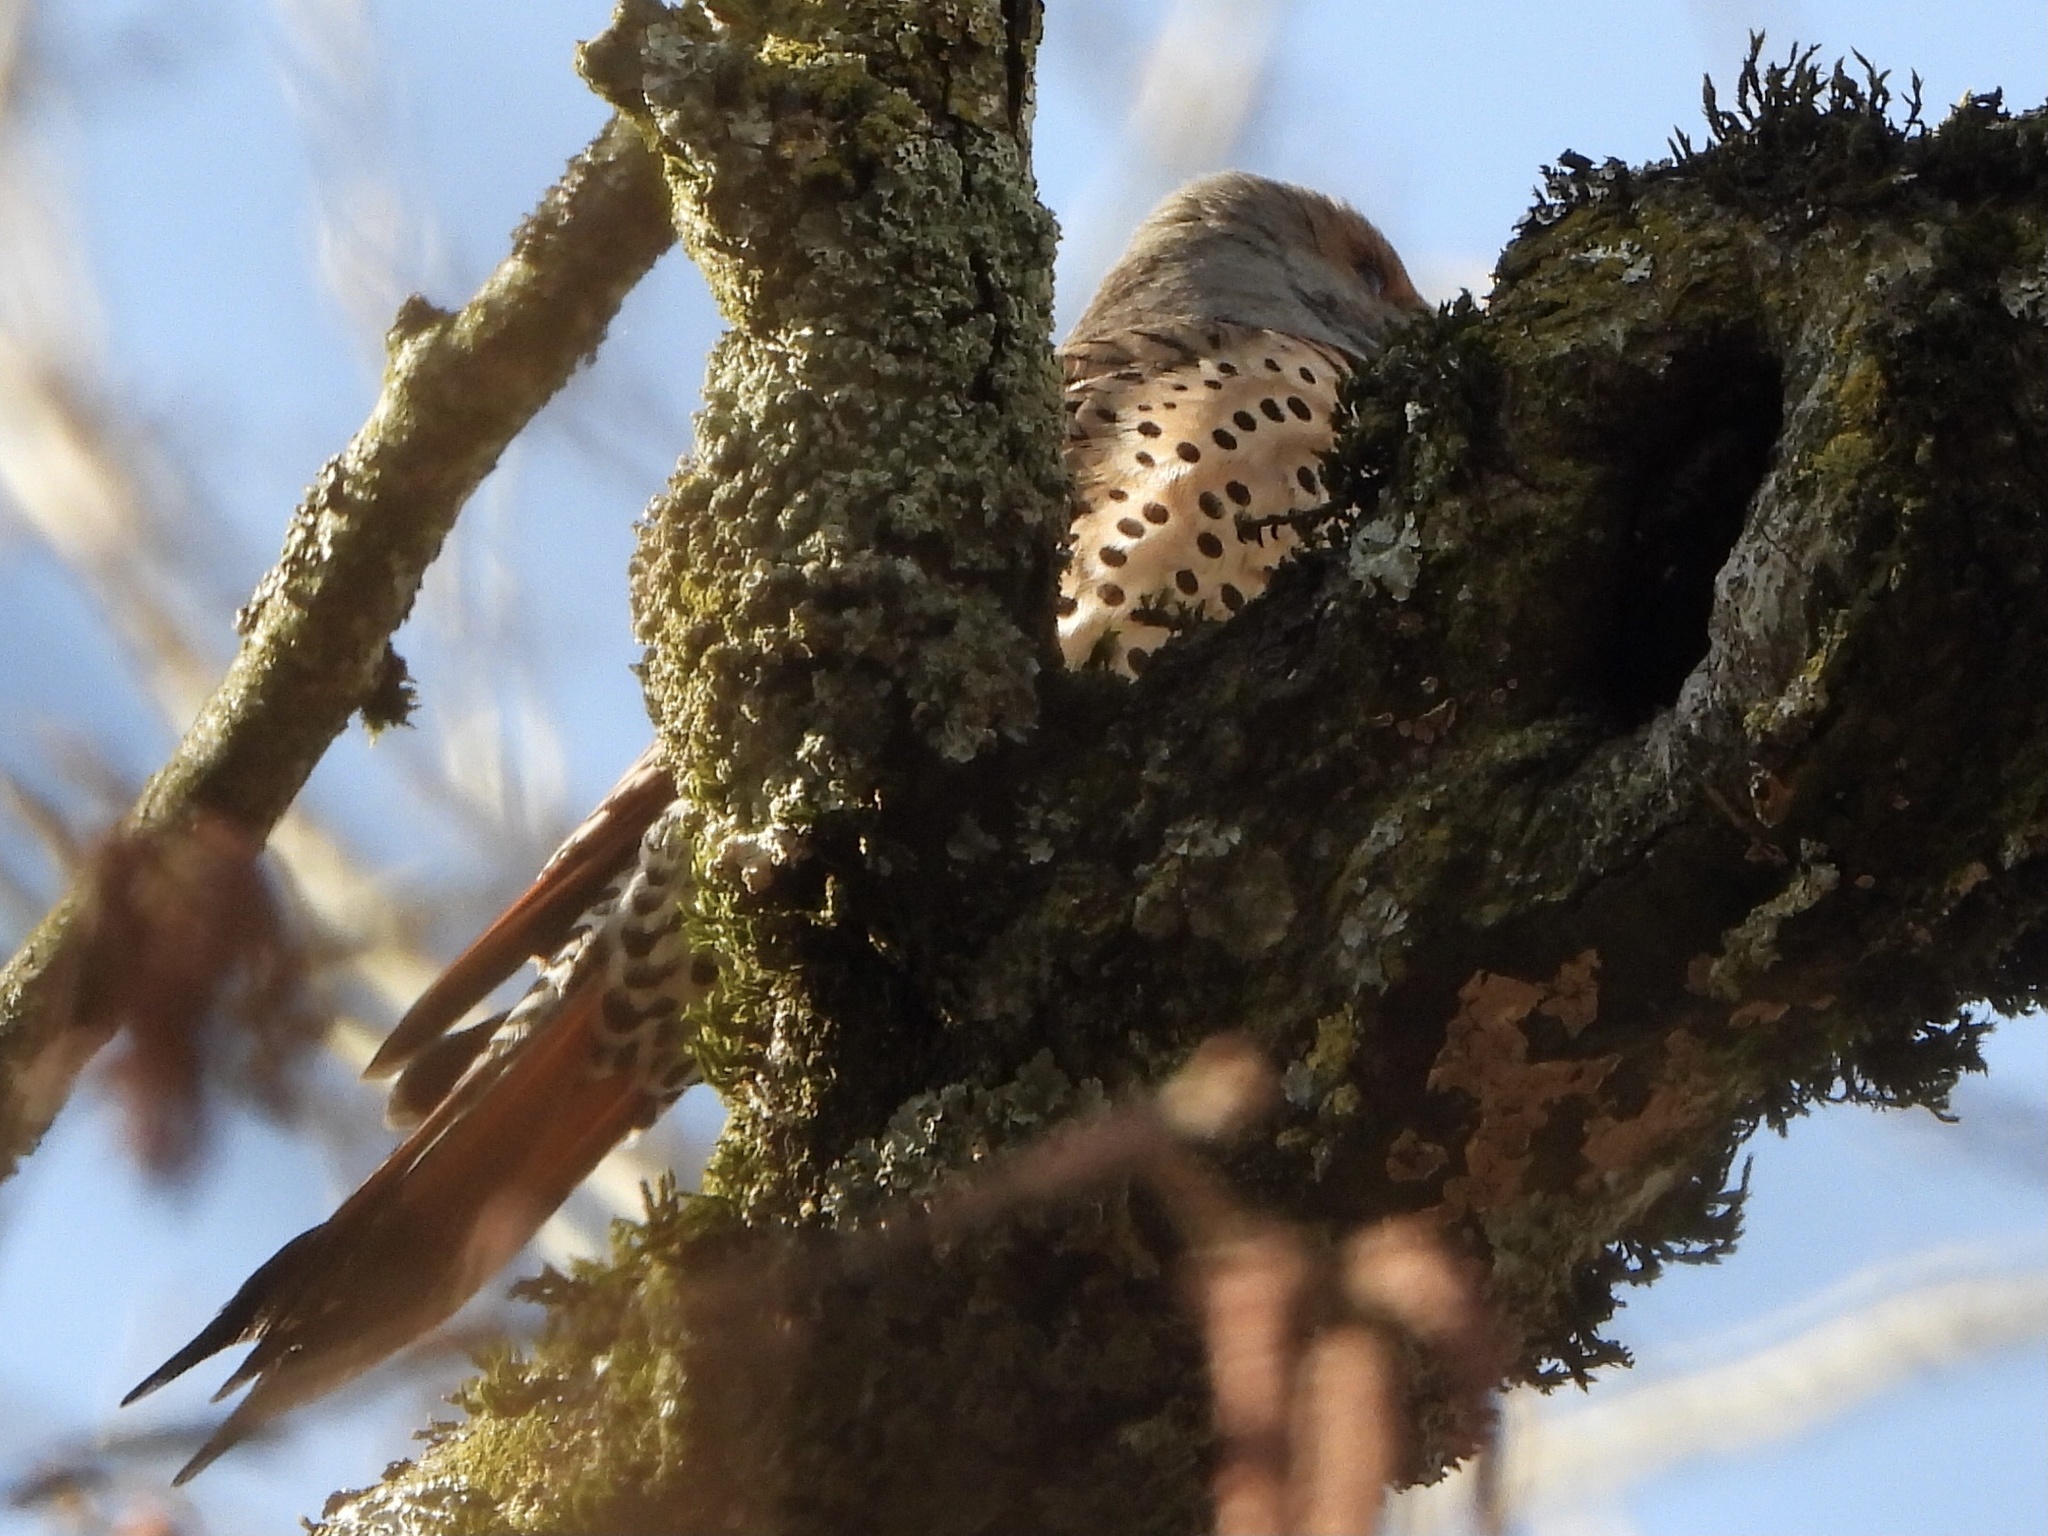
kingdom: Animalia
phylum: Chordata
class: Aves
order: Piciformes
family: Picidae
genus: Colaptes
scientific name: Colaptes auratus
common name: Northern flicker
